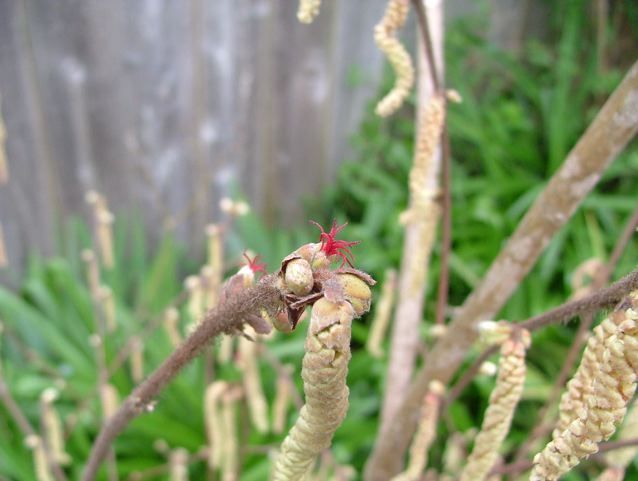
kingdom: Plantae
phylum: Tracheophyta
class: Magnoliopsida
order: Fagales
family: Betulaceae
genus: Corylus
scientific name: Corylus cornuta
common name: Beaked hazel
